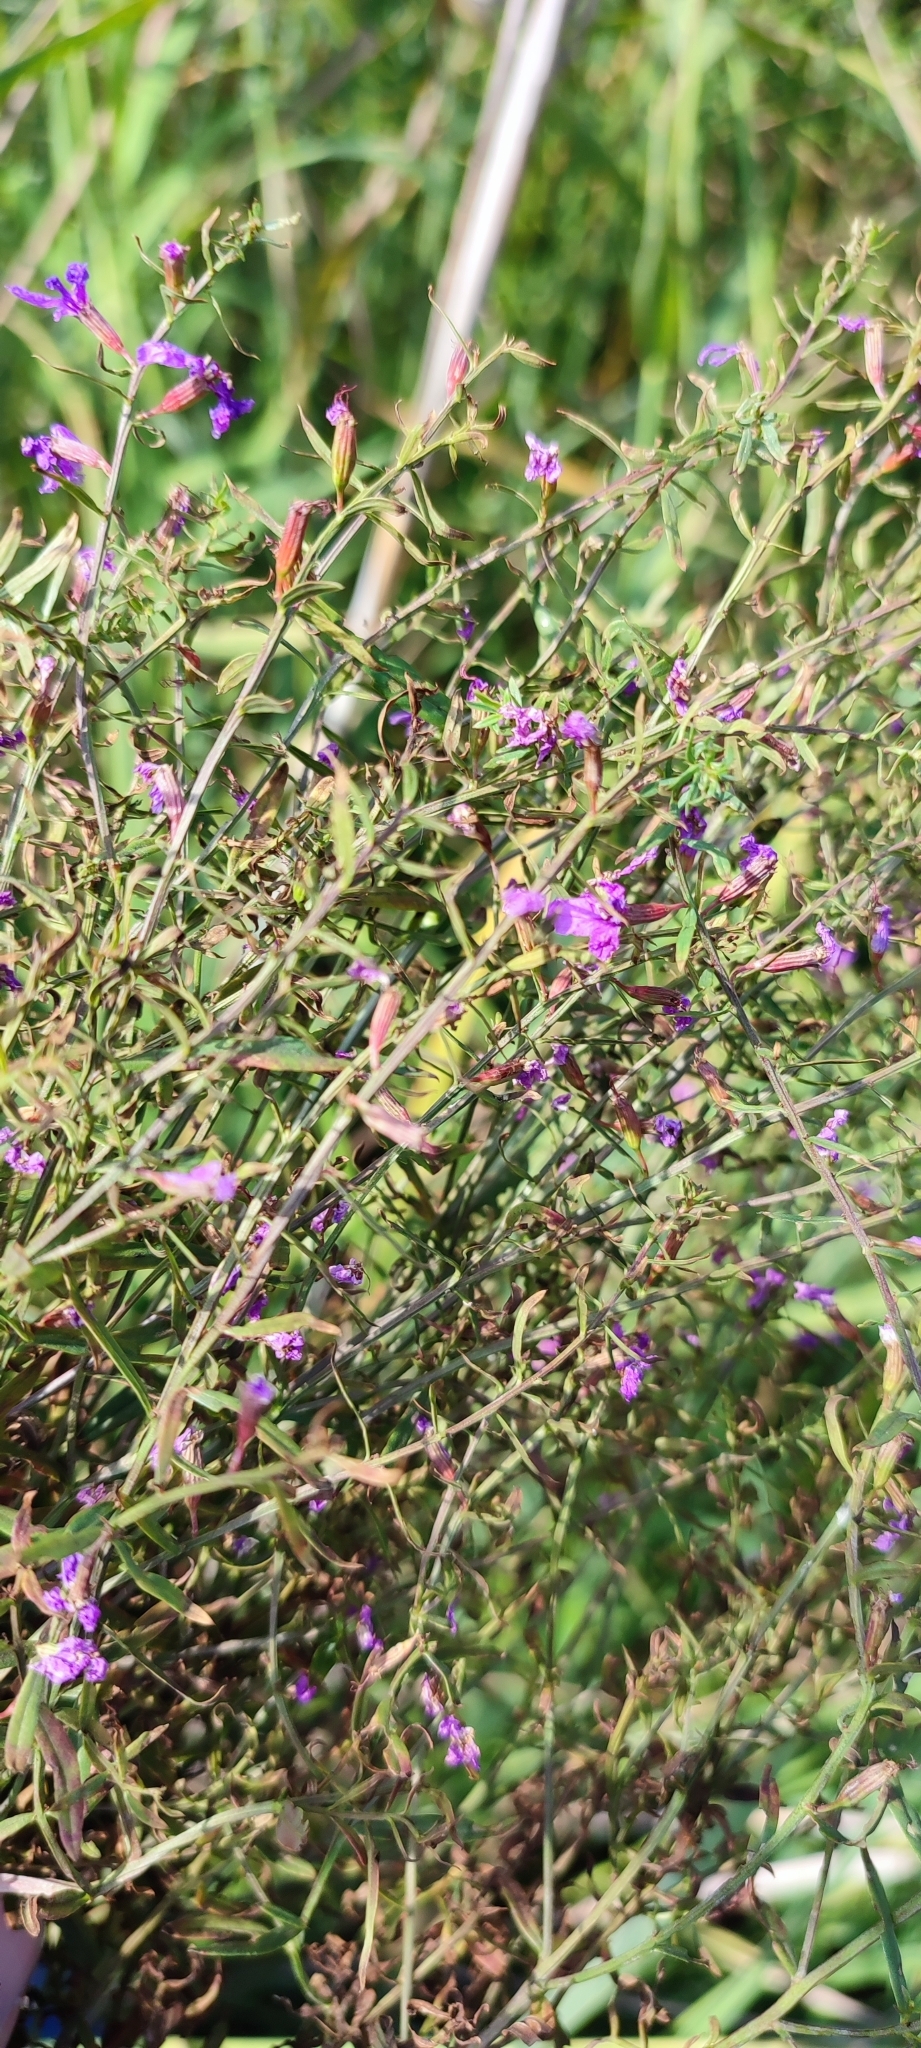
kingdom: Plantae
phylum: Tracheophyta
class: Magnoliopsida
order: Myrtales
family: Lythraceae
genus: Lythrum
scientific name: Lythrum virgatum
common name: European wand loosestrife
